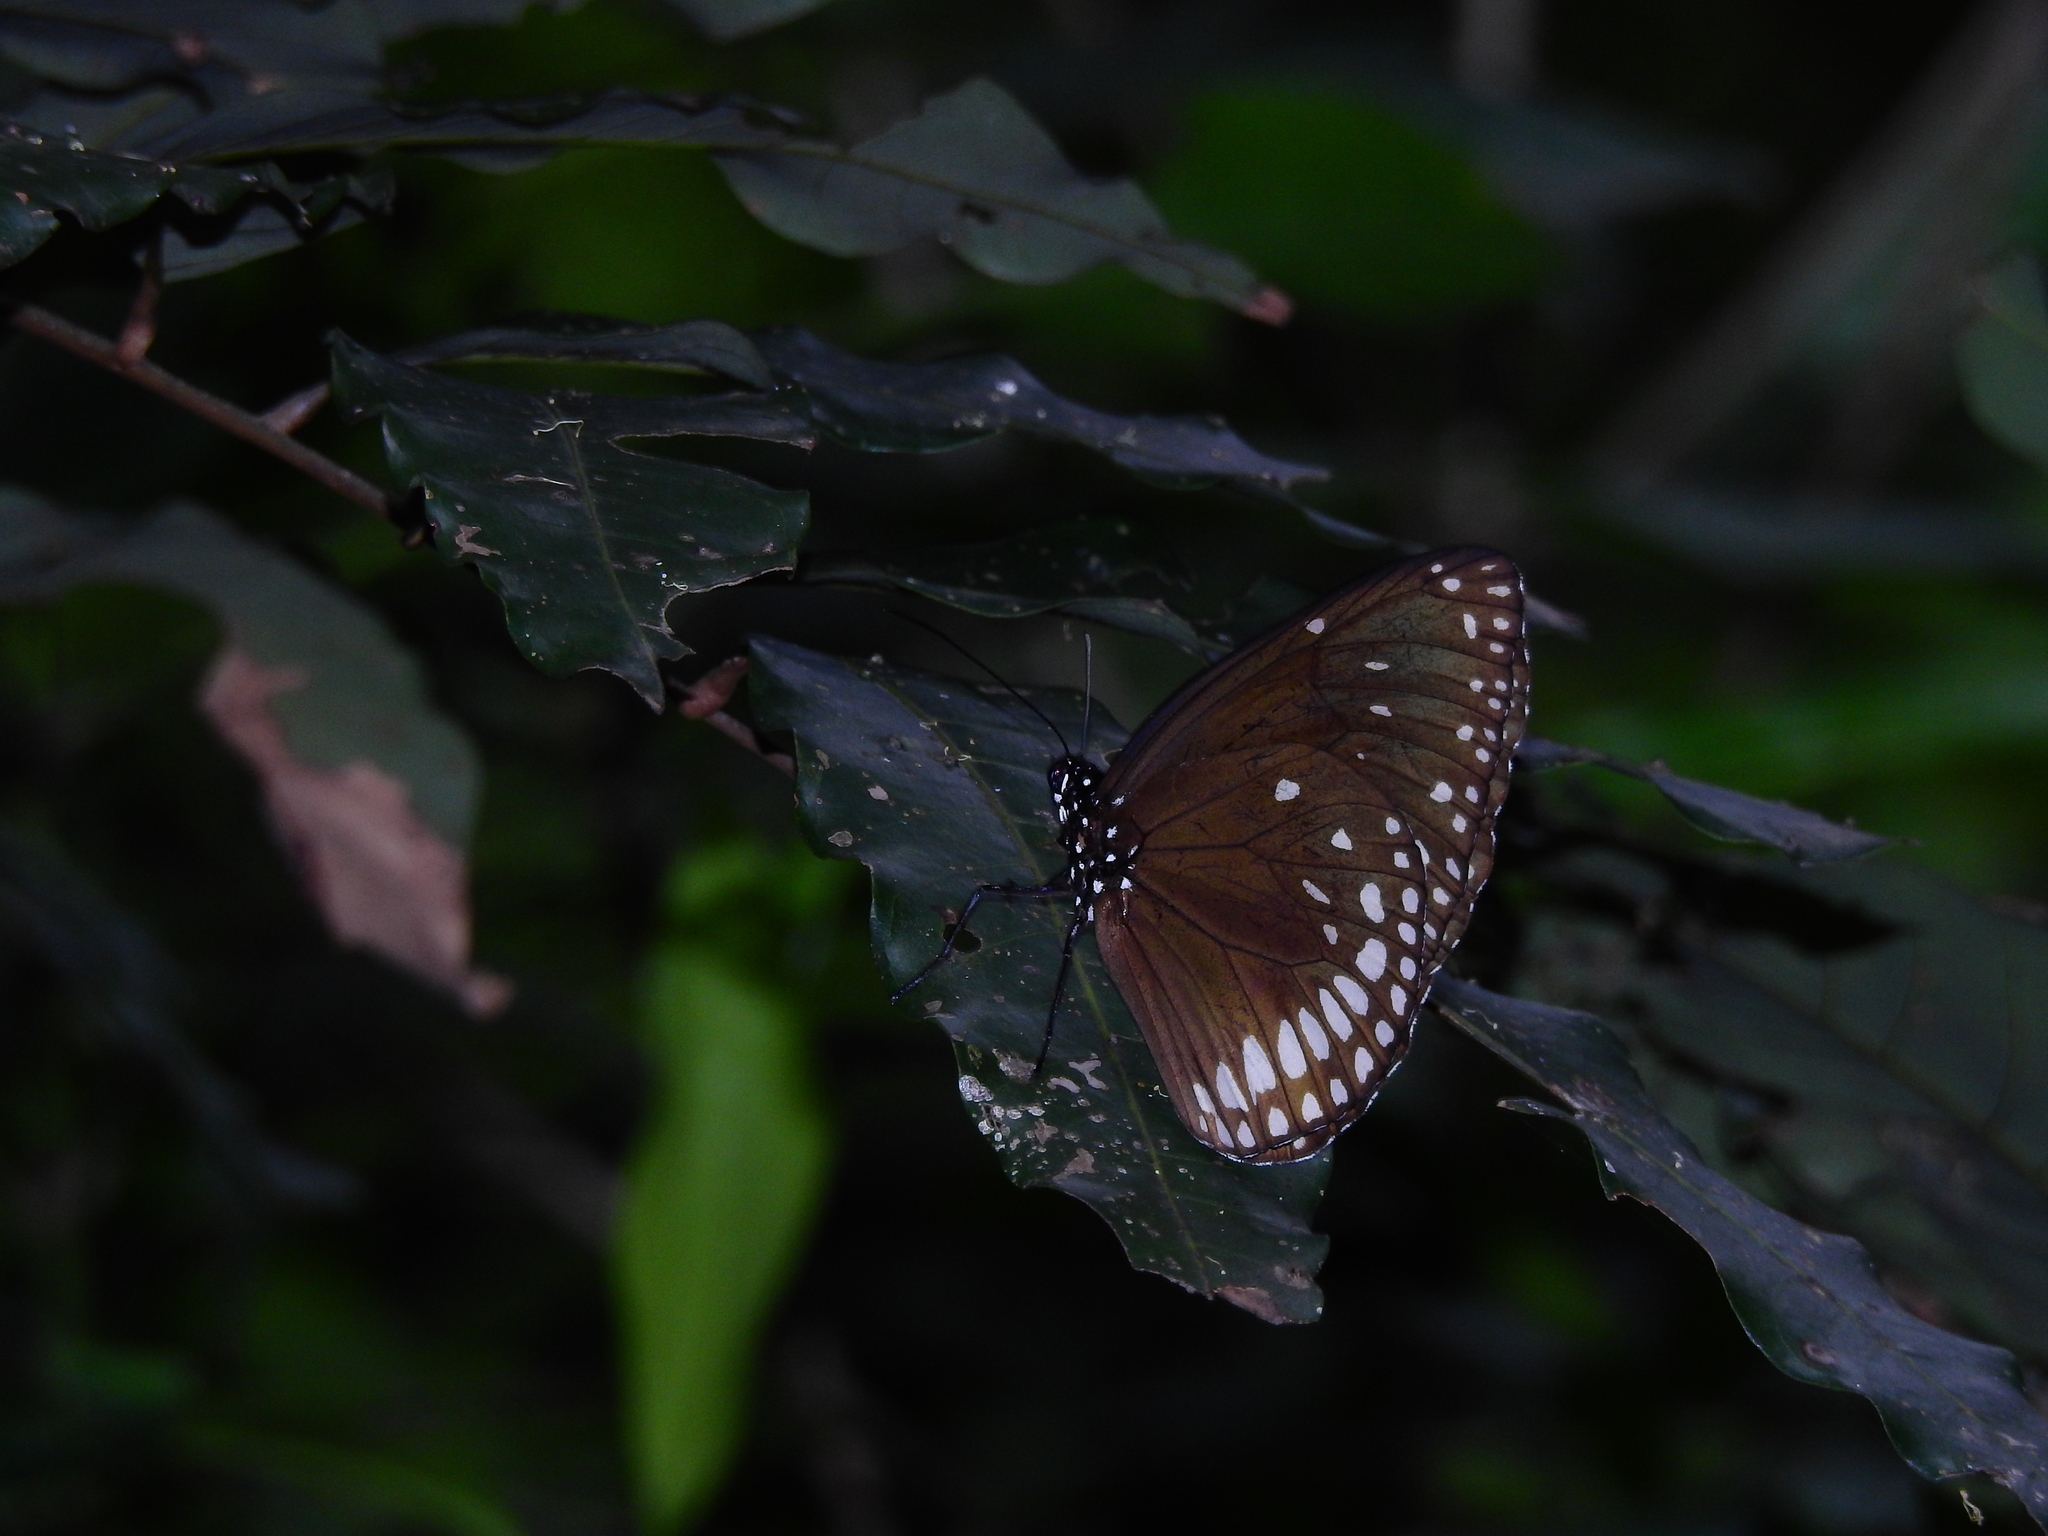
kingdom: Animalia
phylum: Arthropoda
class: Insecta
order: Lepidoptera
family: Nymphalidae
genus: Euploea
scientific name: Euploea klugii
